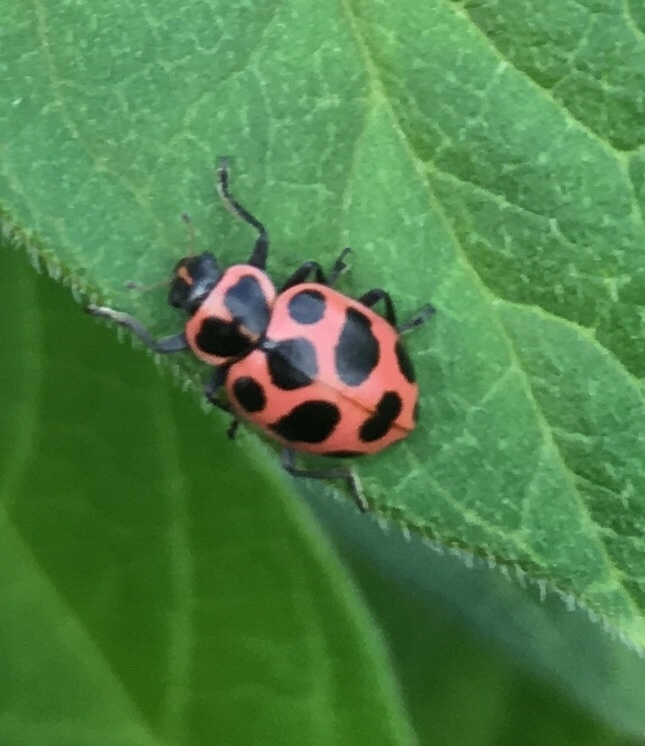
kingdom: Animalia
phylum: Arthropoda
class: Insecta
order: Coleoptera
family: Coccinellidae
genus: Coleomegilla
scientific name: Coleomegilla maculata
